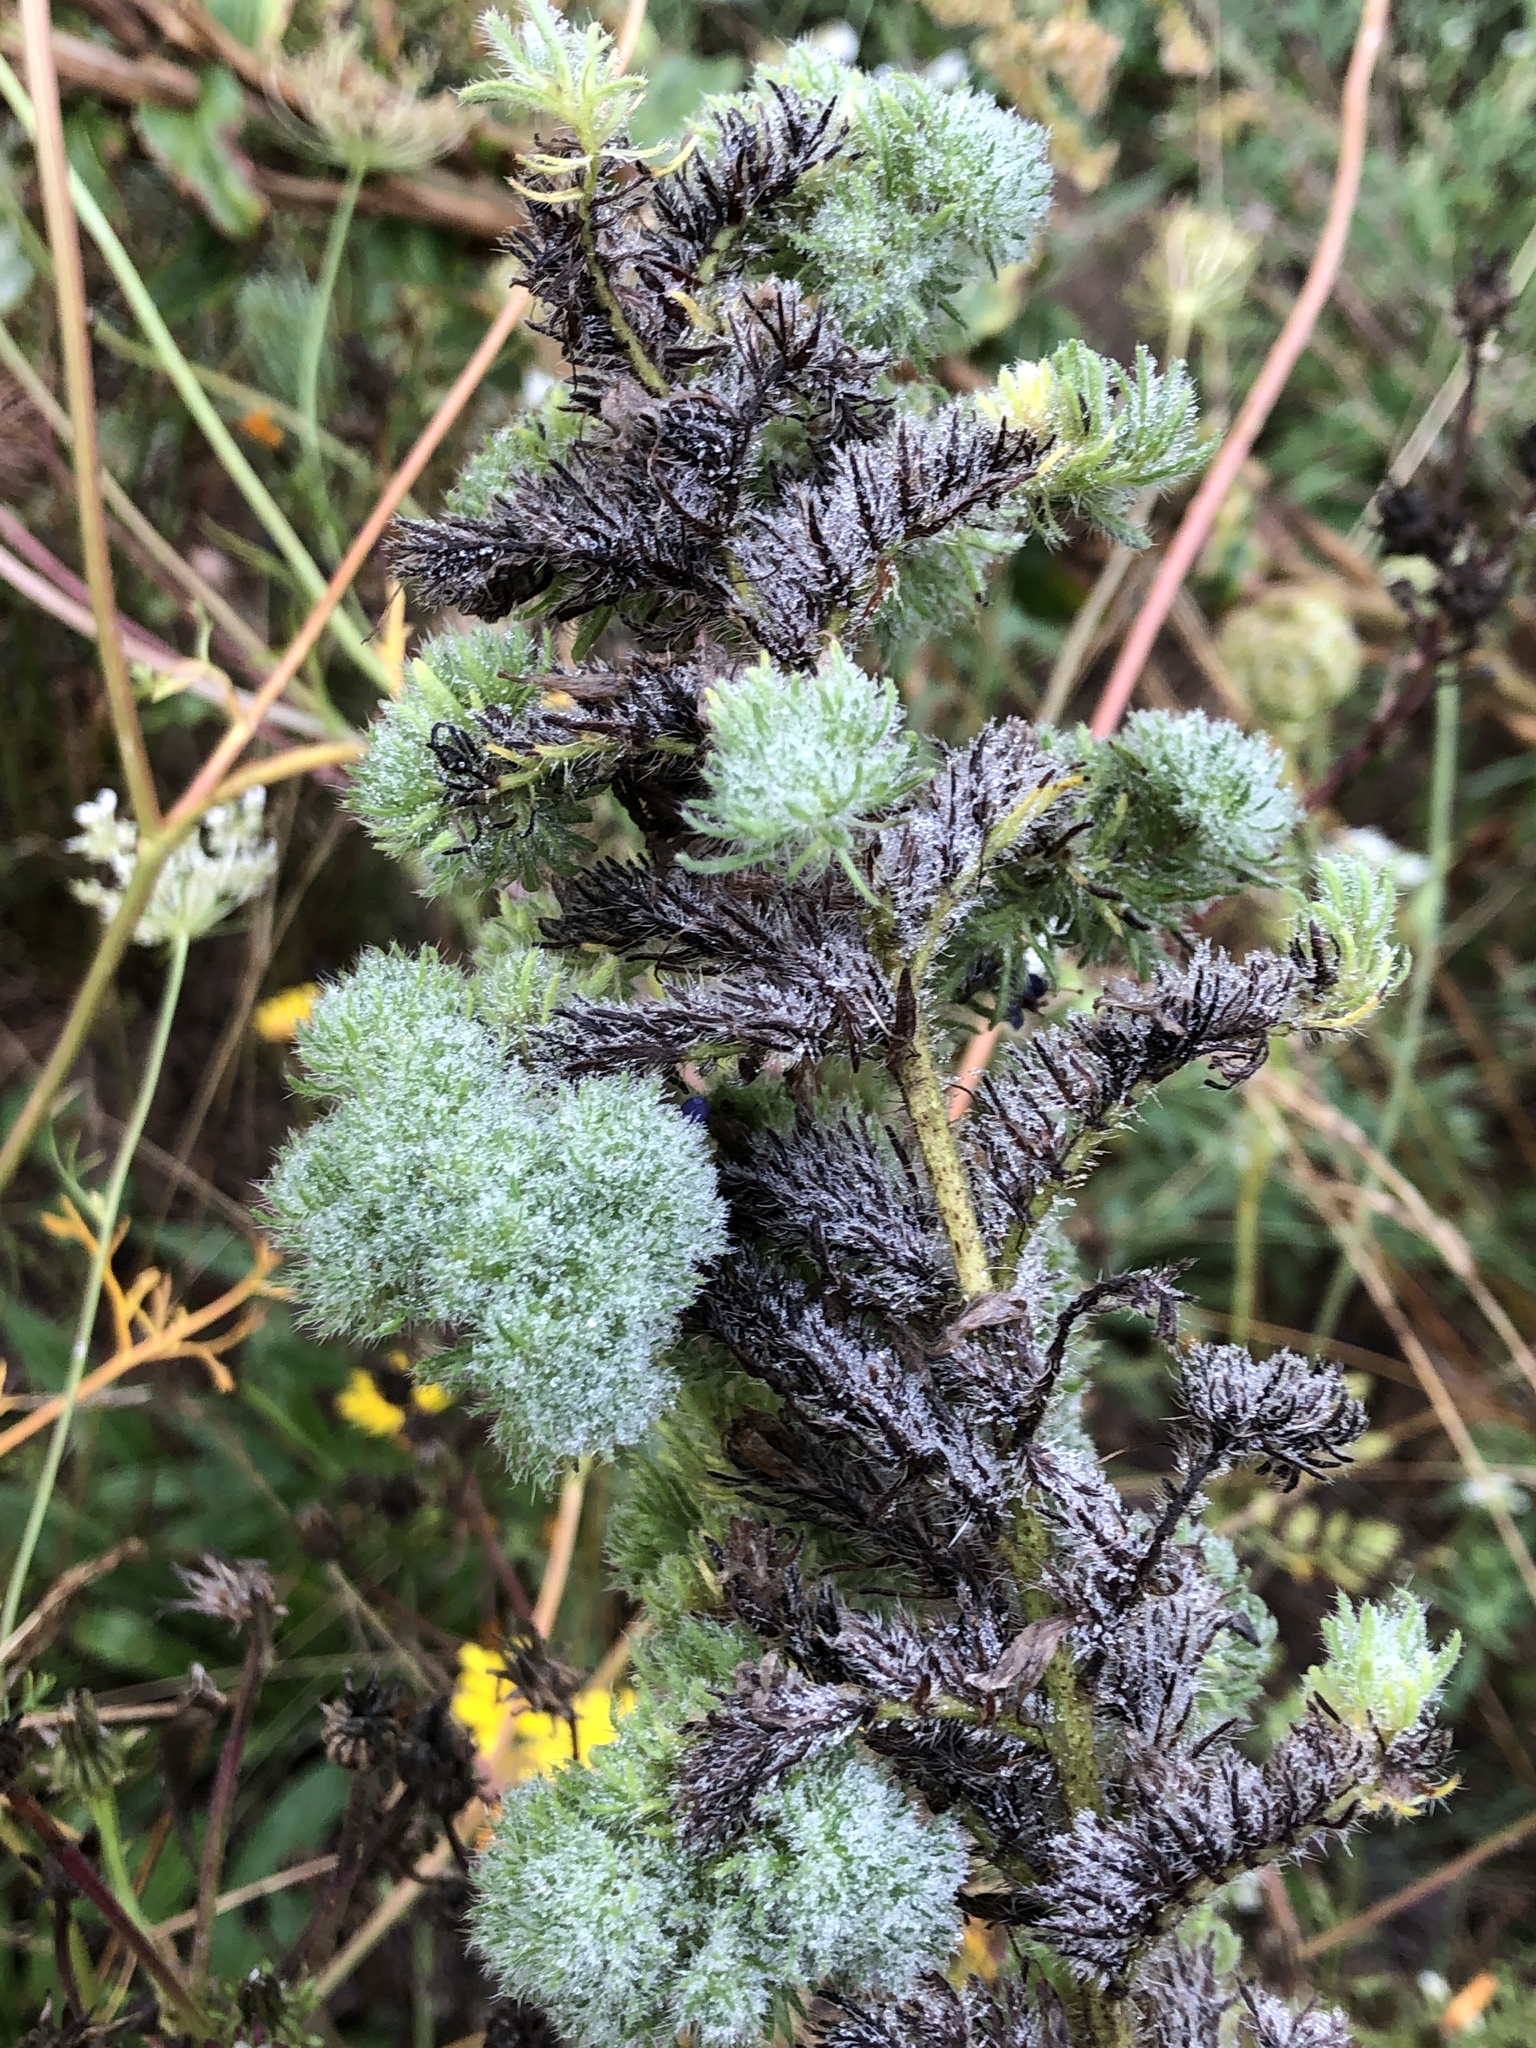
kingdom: Animalia
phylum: Arthropoda
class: Arachnida
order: Trombidiformes
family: Eriophyidae
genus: Aceria
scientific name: Aceria echii
